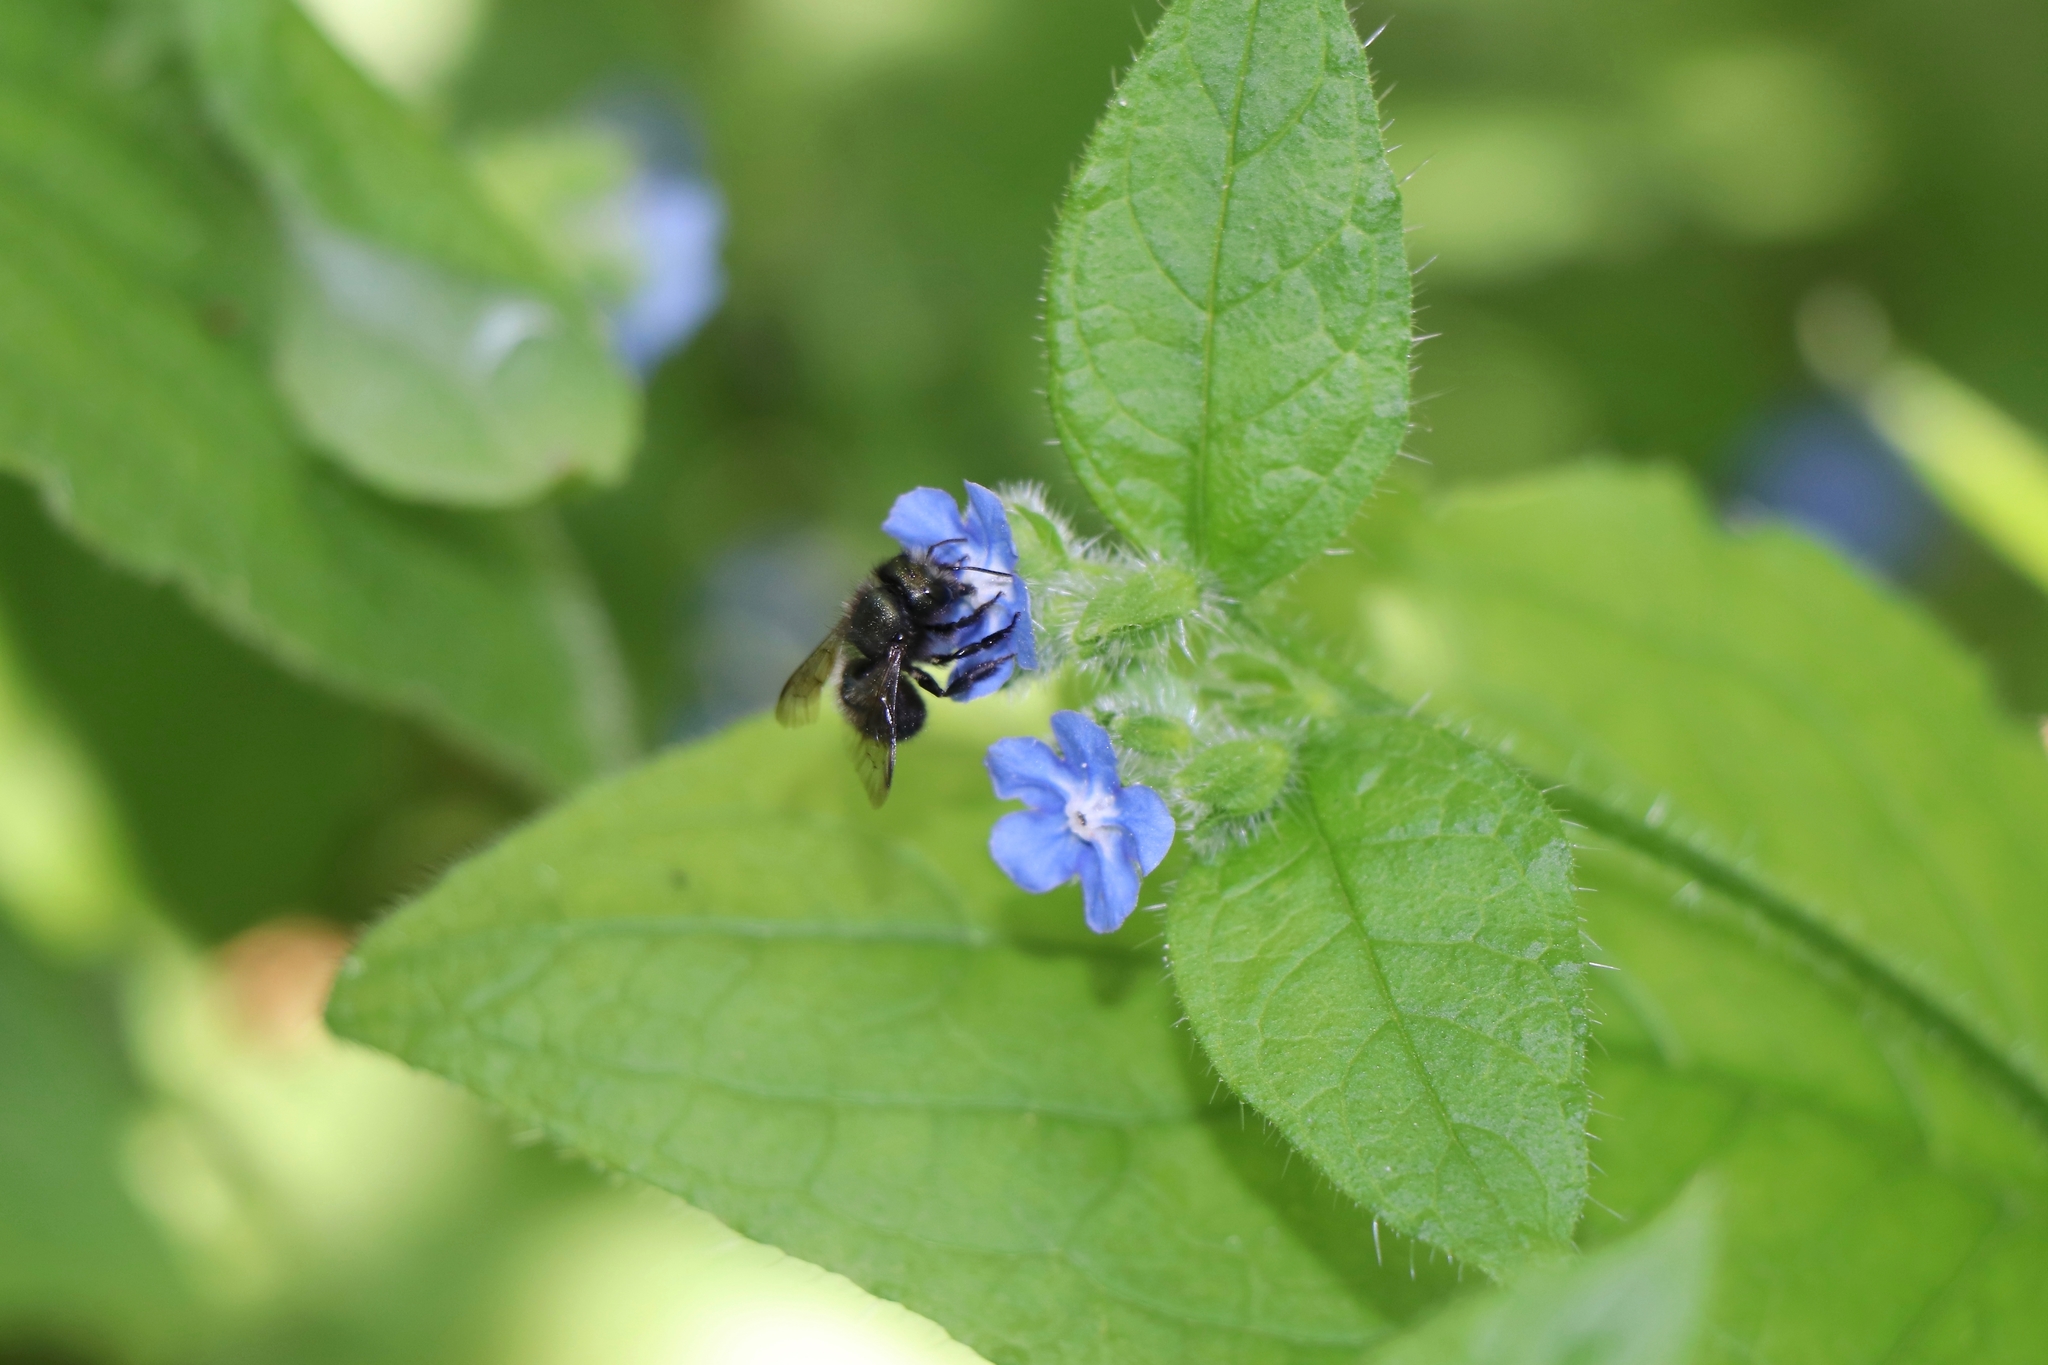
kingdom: Animalia
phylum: Arthropoda
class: Insecta
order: Hymenoptera
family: Megachilidae
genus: Osmia
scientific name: Osmia lignaria
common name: Blue orchard bee
